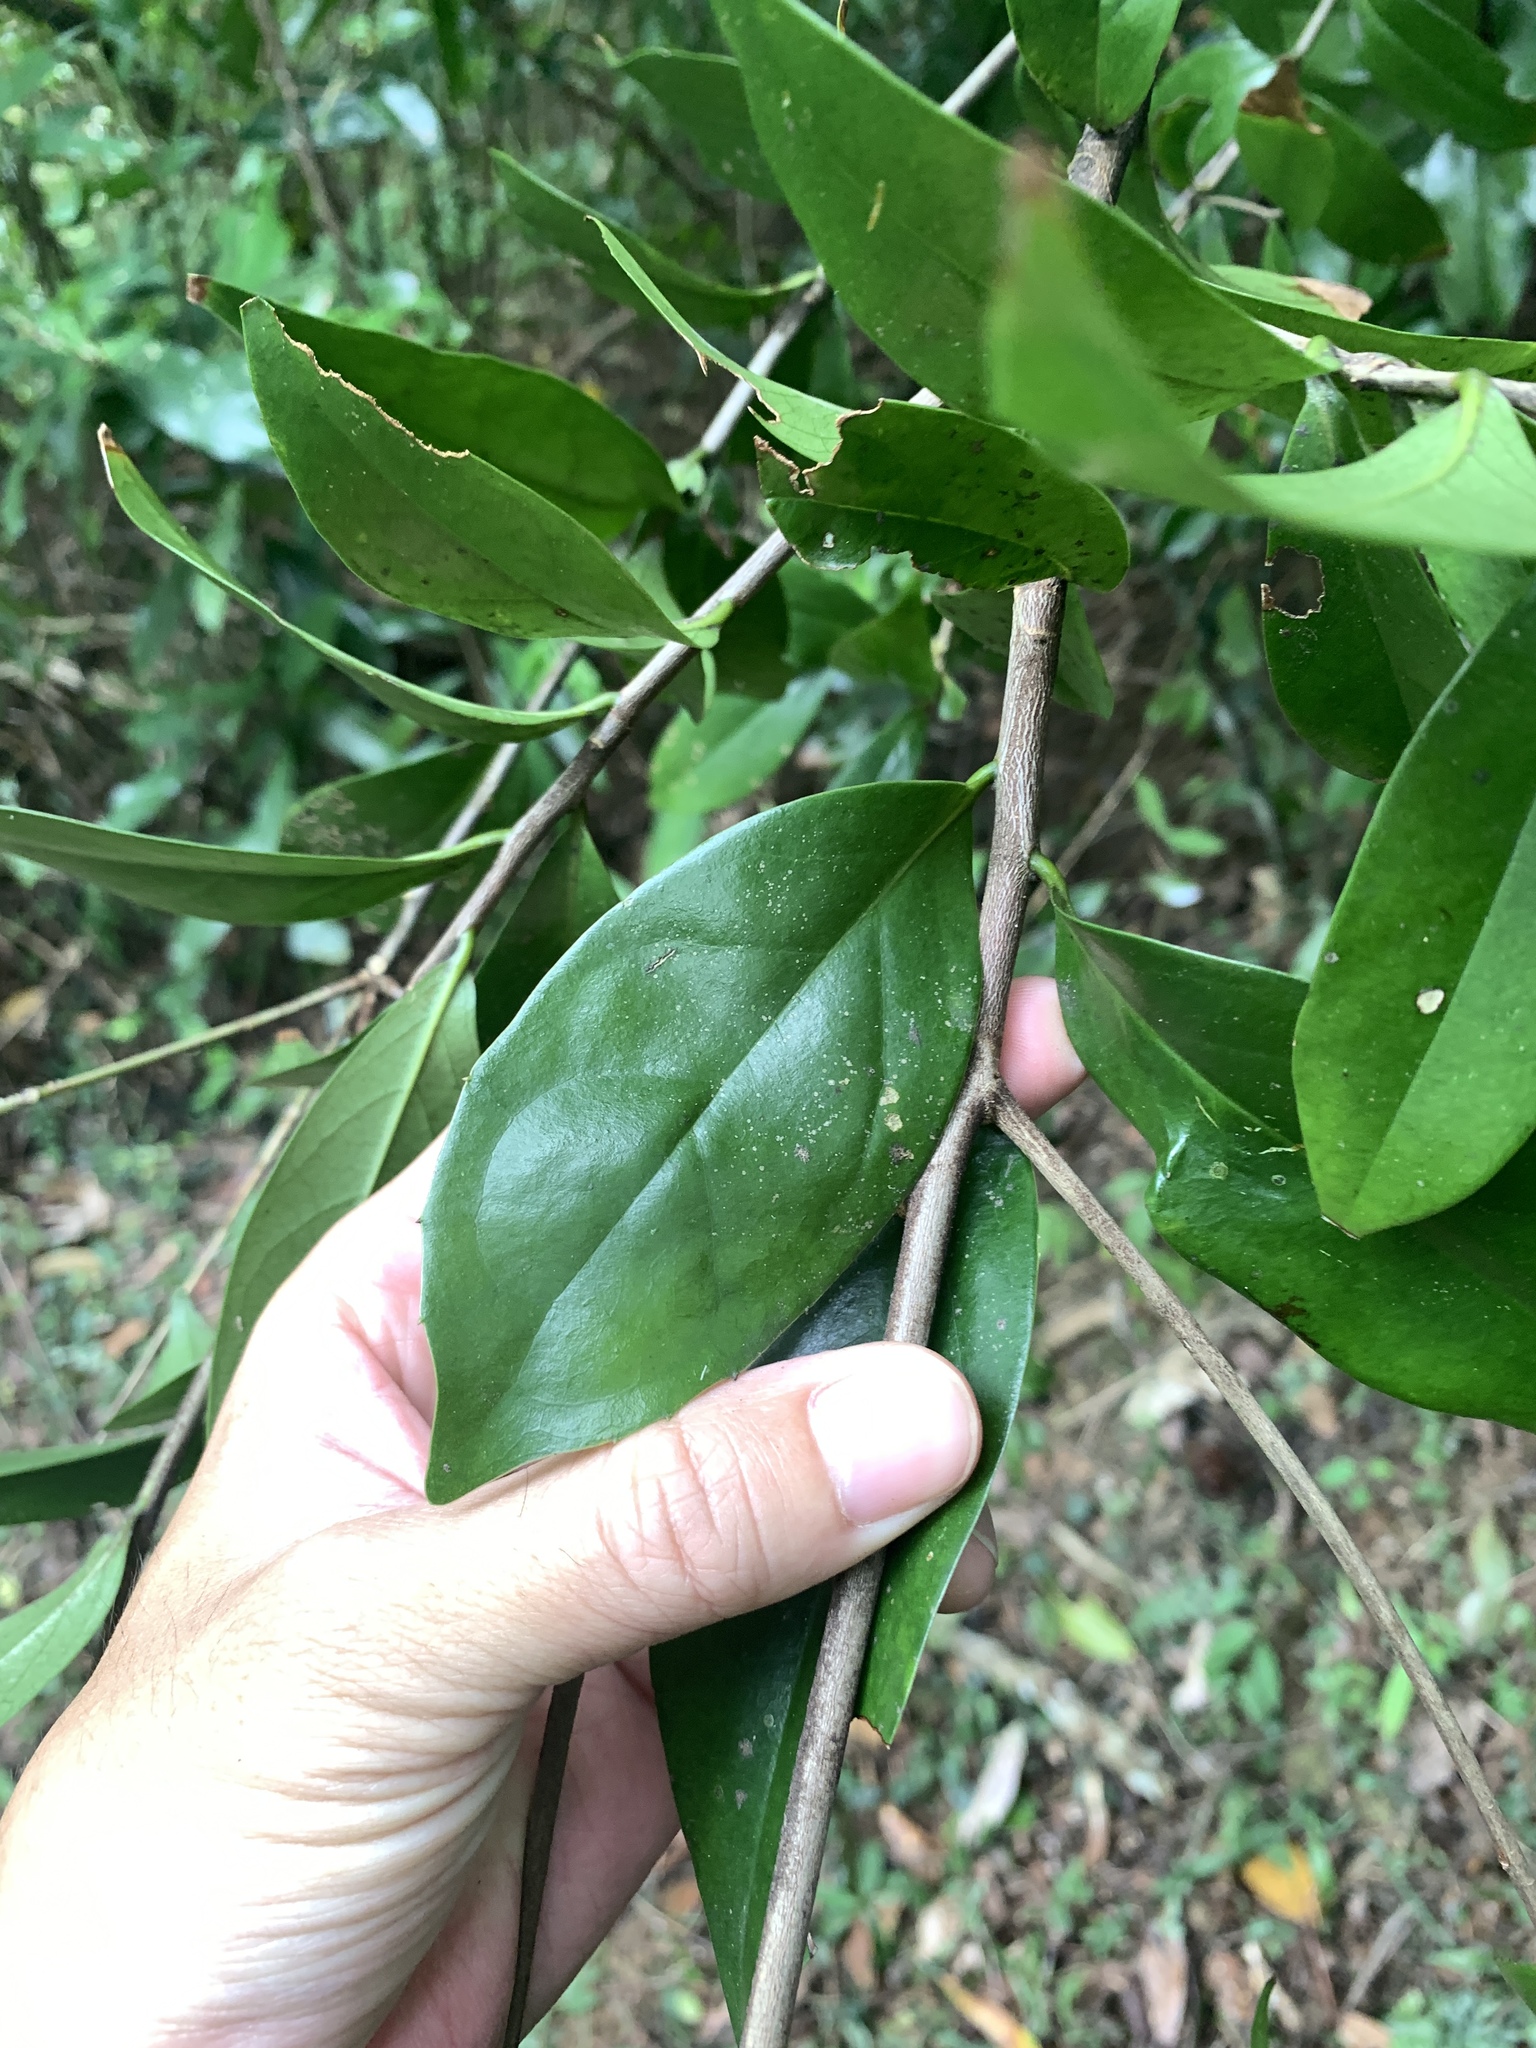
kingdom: Plantae
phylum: Tracheophyta
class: Magnoliopsida
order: Ericales
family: Symplocaceae
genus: Symplocos
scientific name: Symplocos congesta
